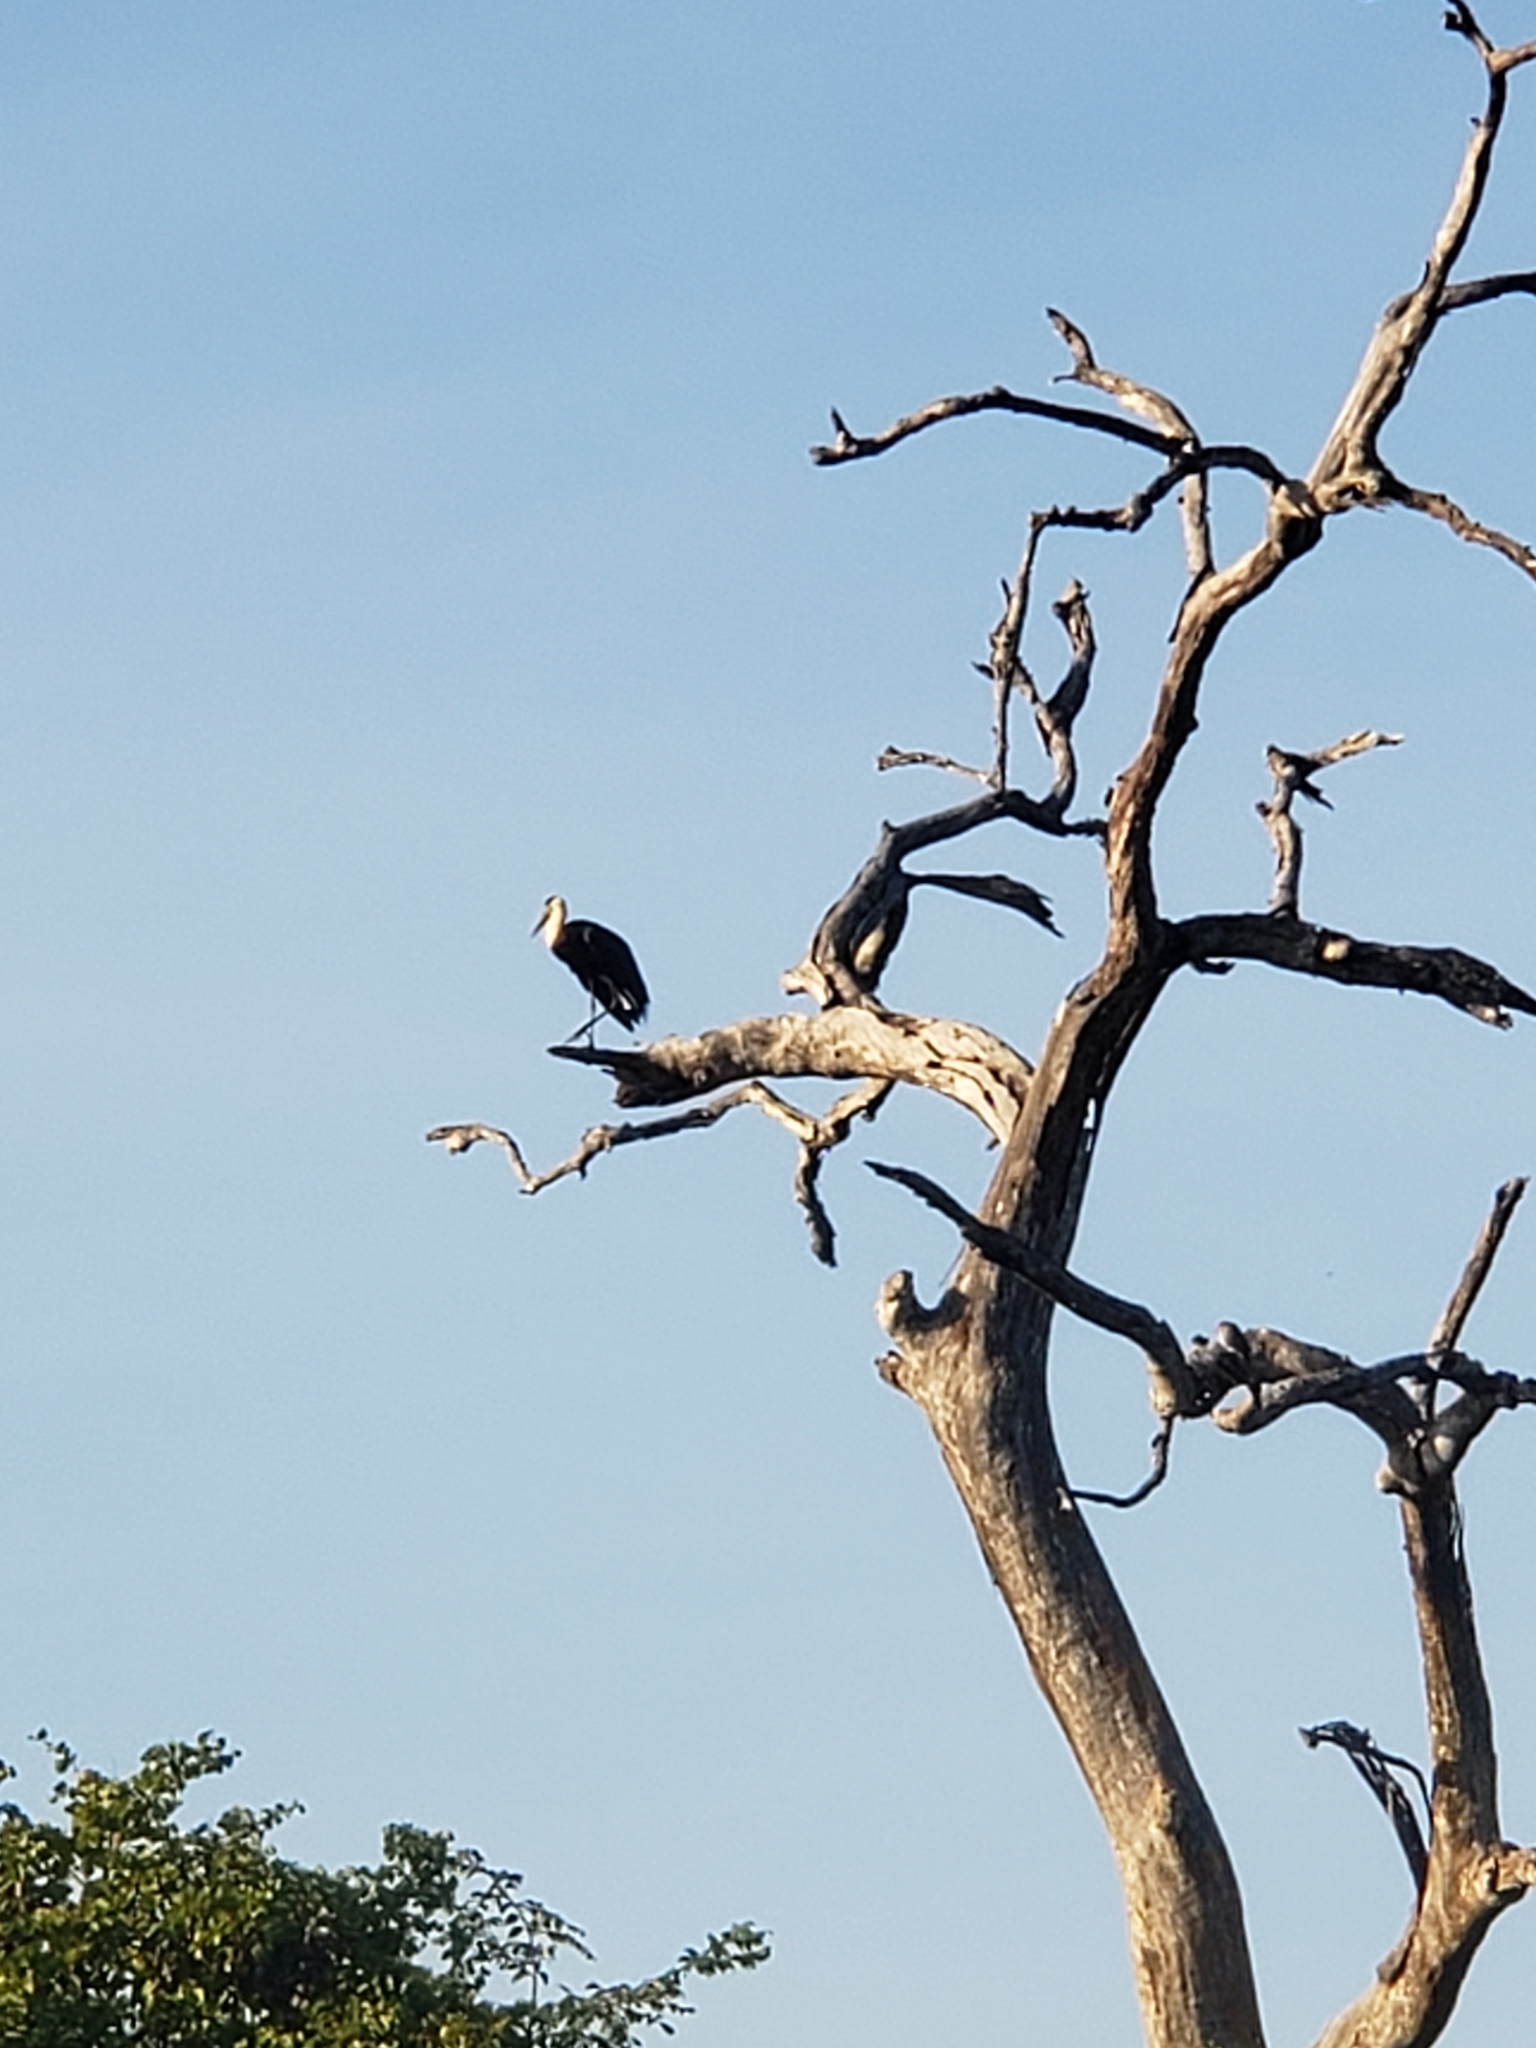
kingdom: Animalia
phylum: Chordata
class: Aves
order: Ciconiiformes
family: Ciconiidae
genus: Ciconia
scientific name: Ciconia episcopus
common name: Woolly-necked stork
